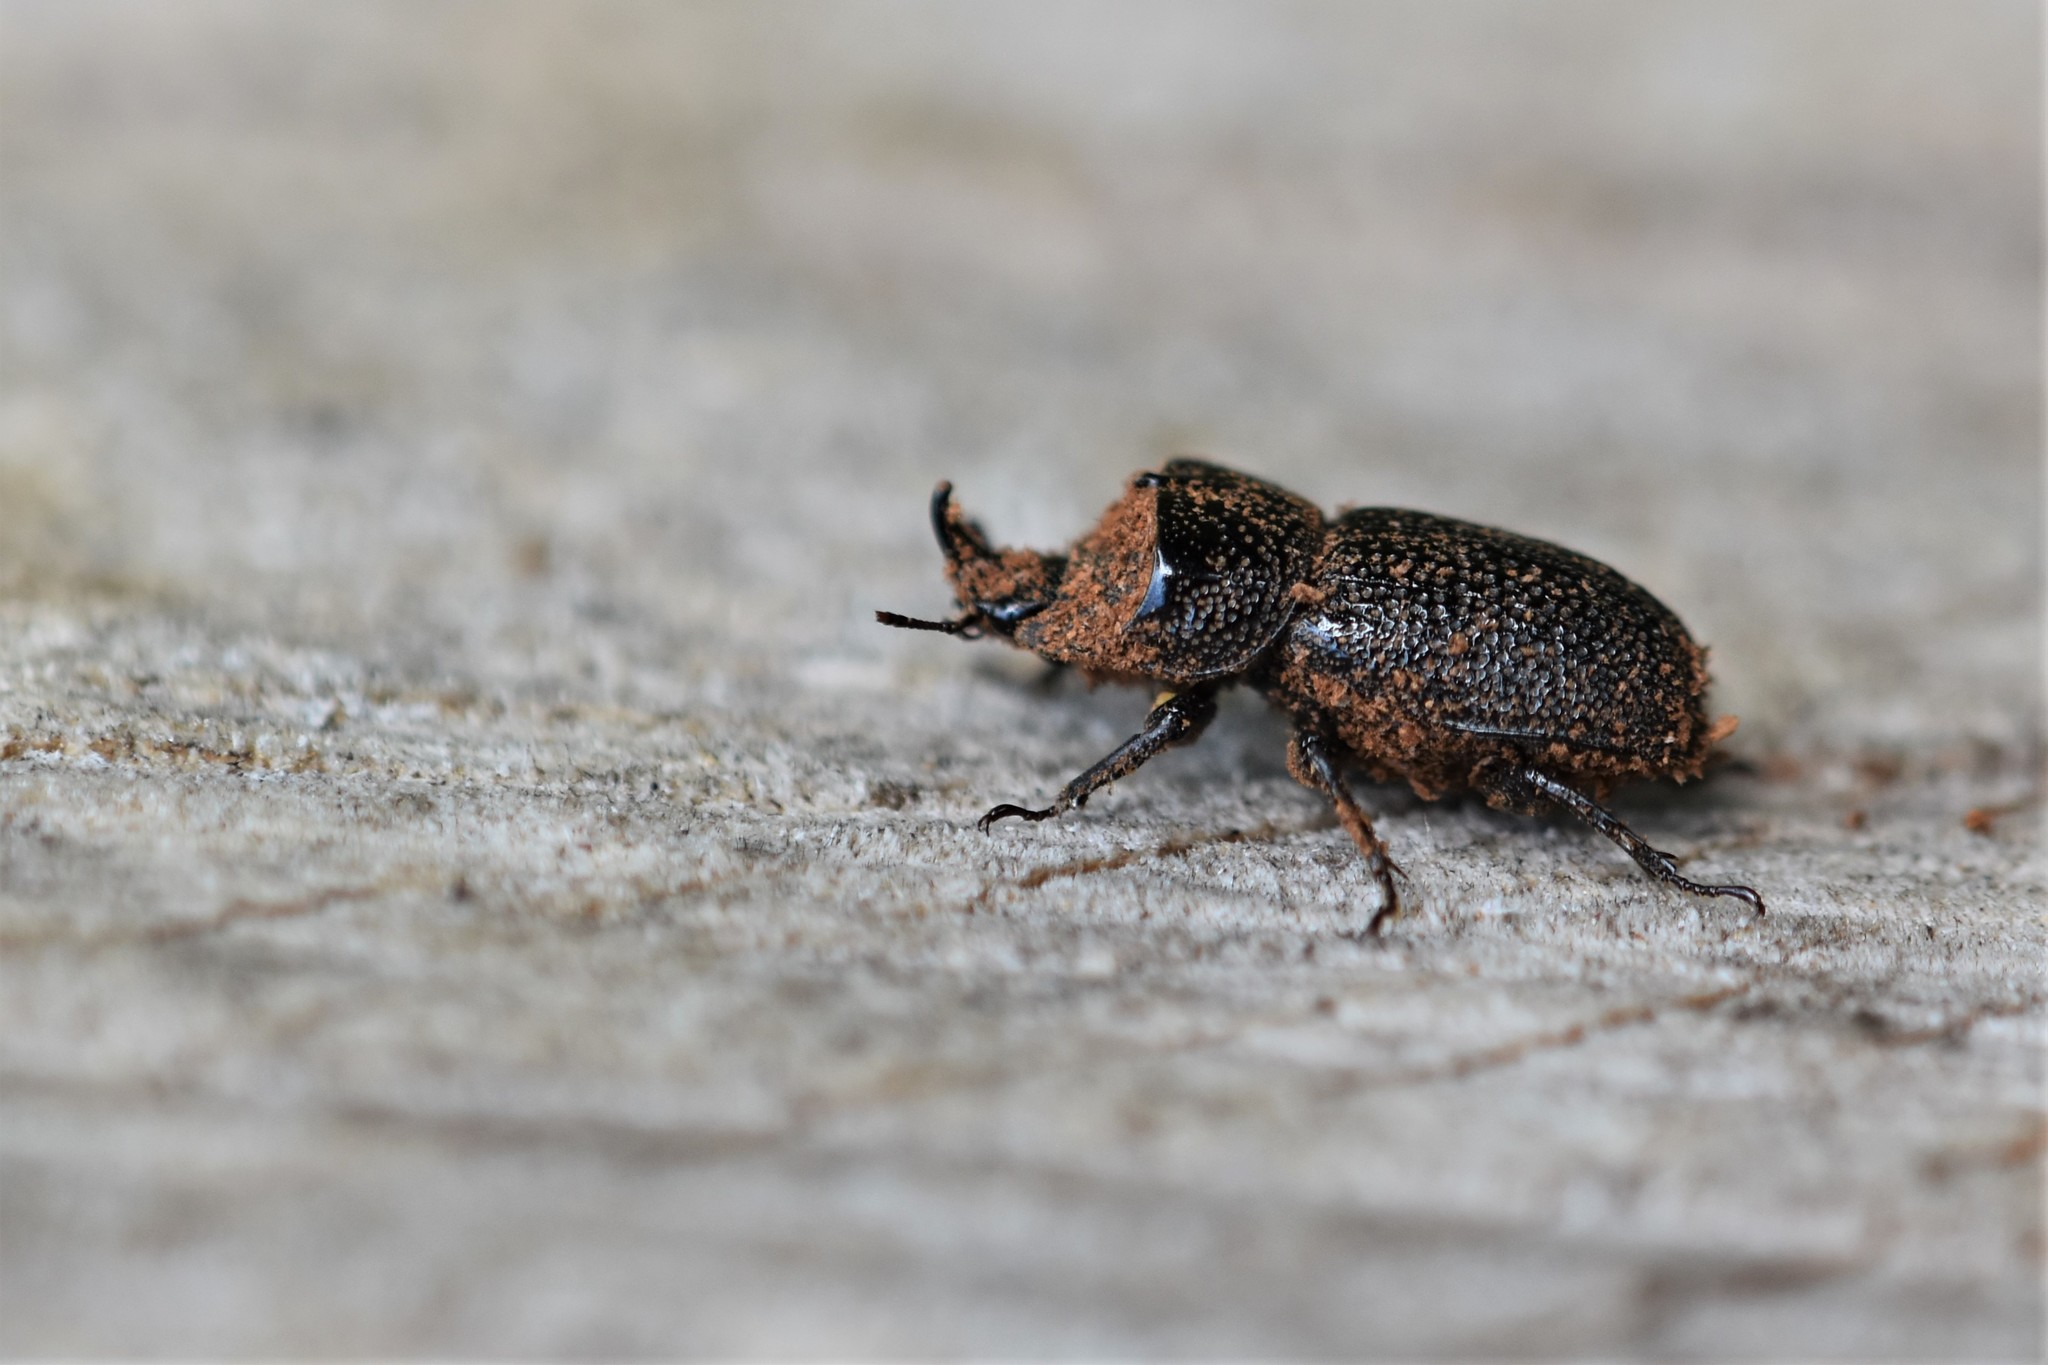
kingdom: Animalia
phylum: Arthropoda
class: Insecta
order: Coleoptera
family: Lucanidae
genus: Sinodendron
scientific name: Sinodendron rugosum
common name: Rugose stag beelte
